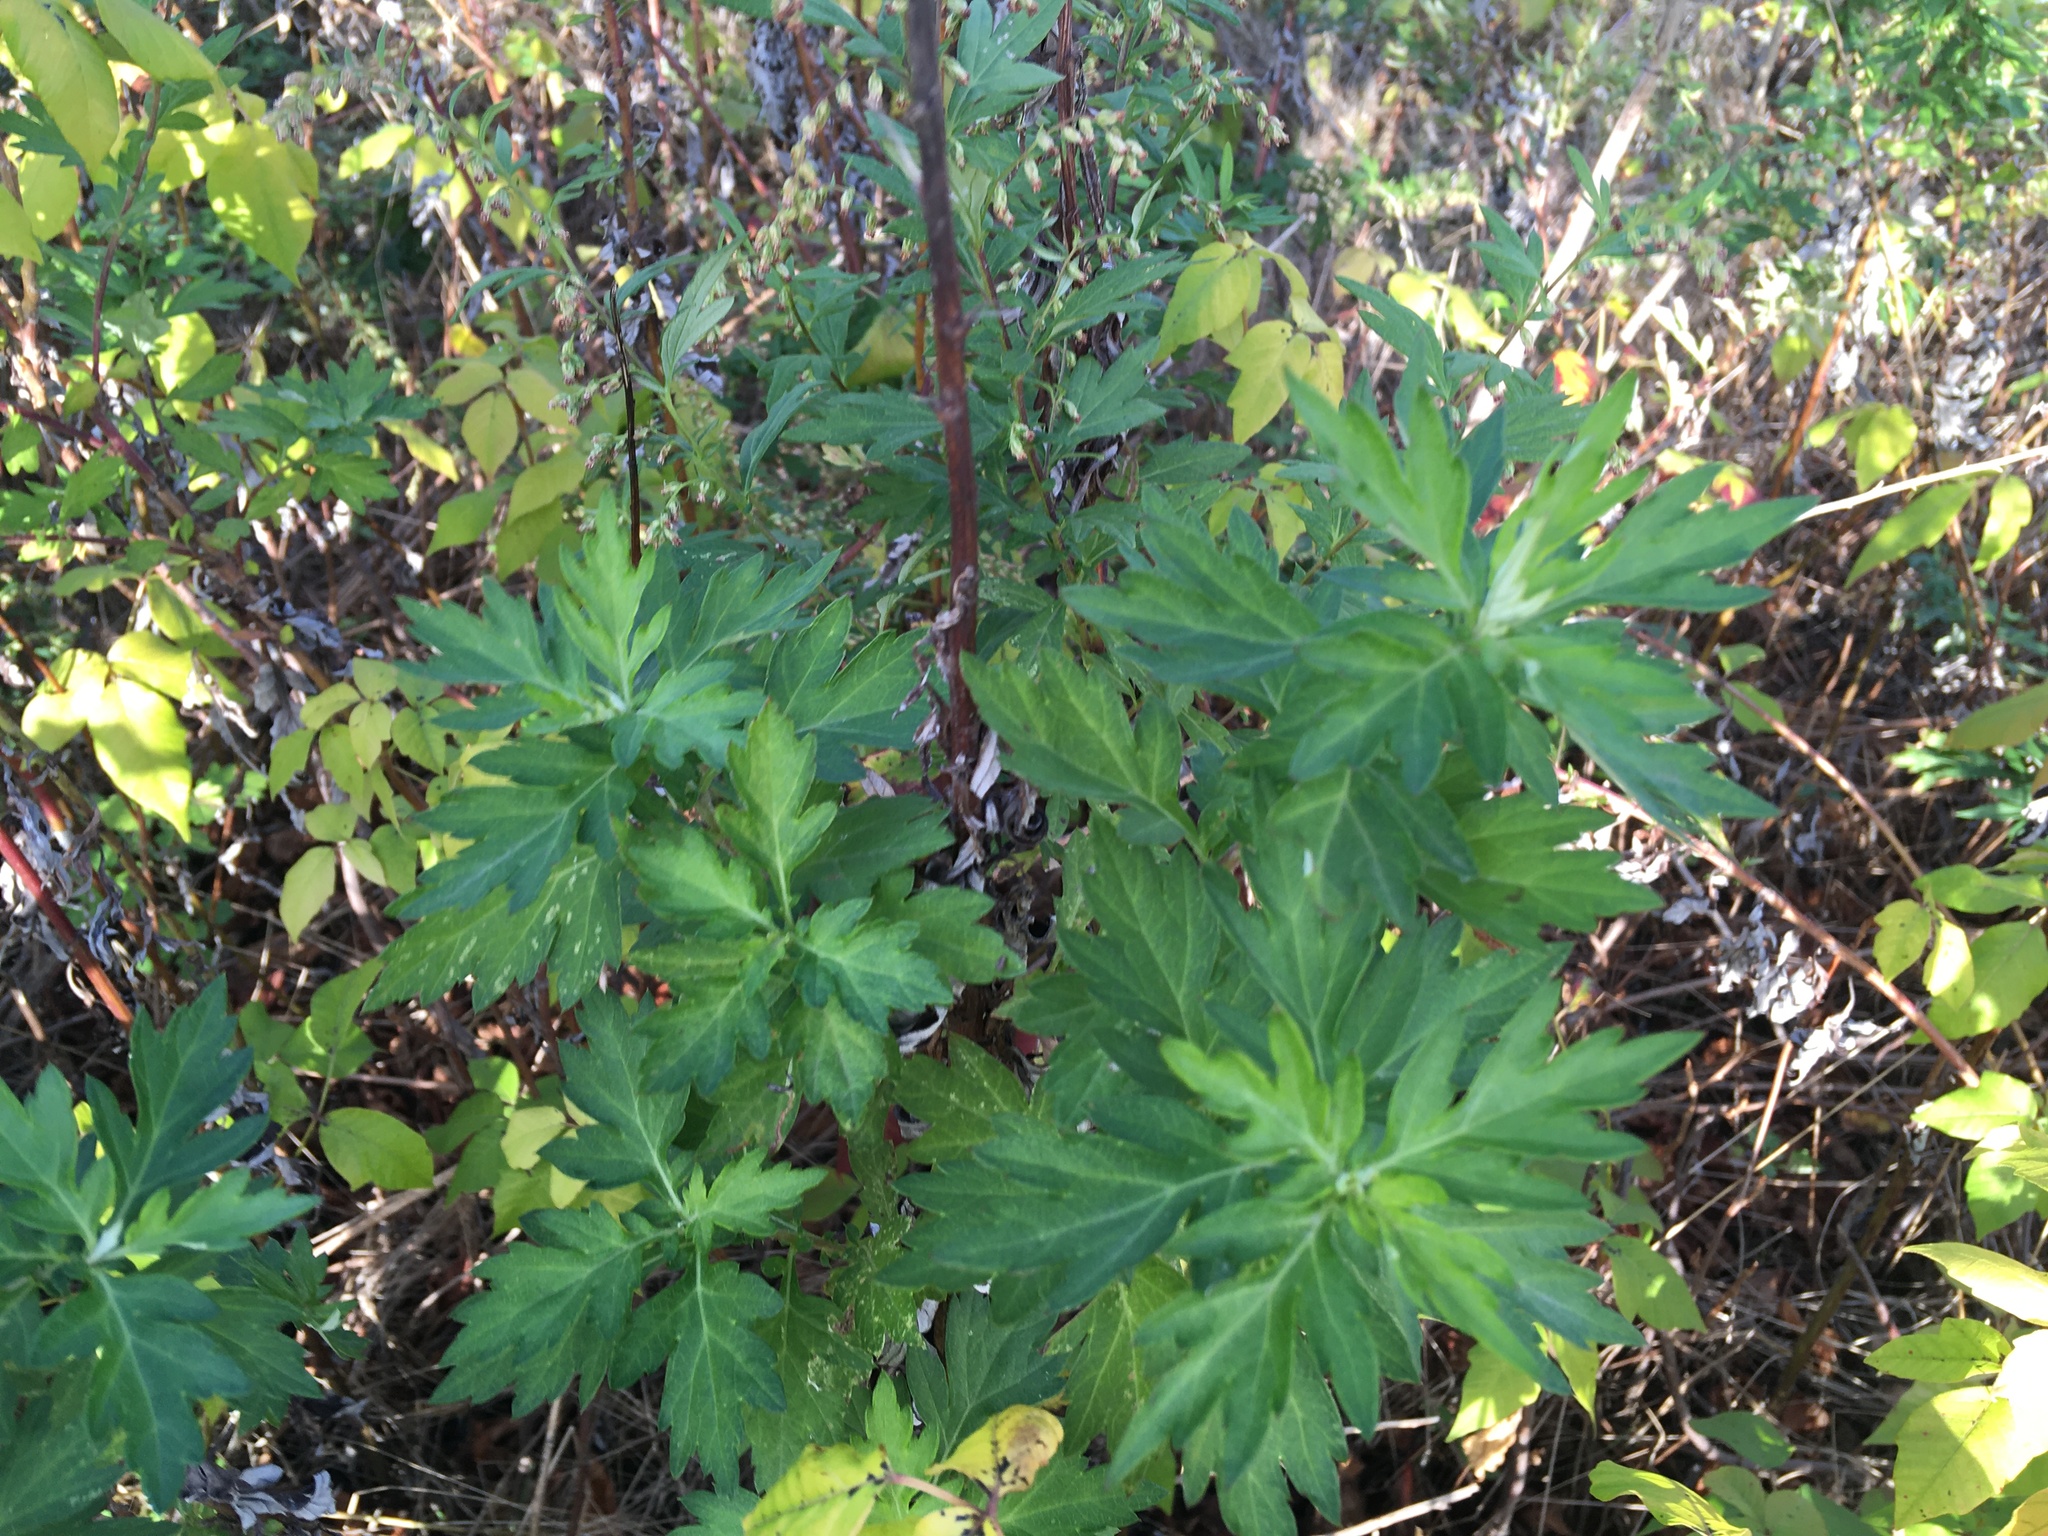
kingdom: Plantae
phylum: Tracheophyta
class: Magnoliopsida
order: Asterales
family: Asteraceae
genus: Artemisia
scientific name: Artemisia vulgaris
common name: Mugwort
